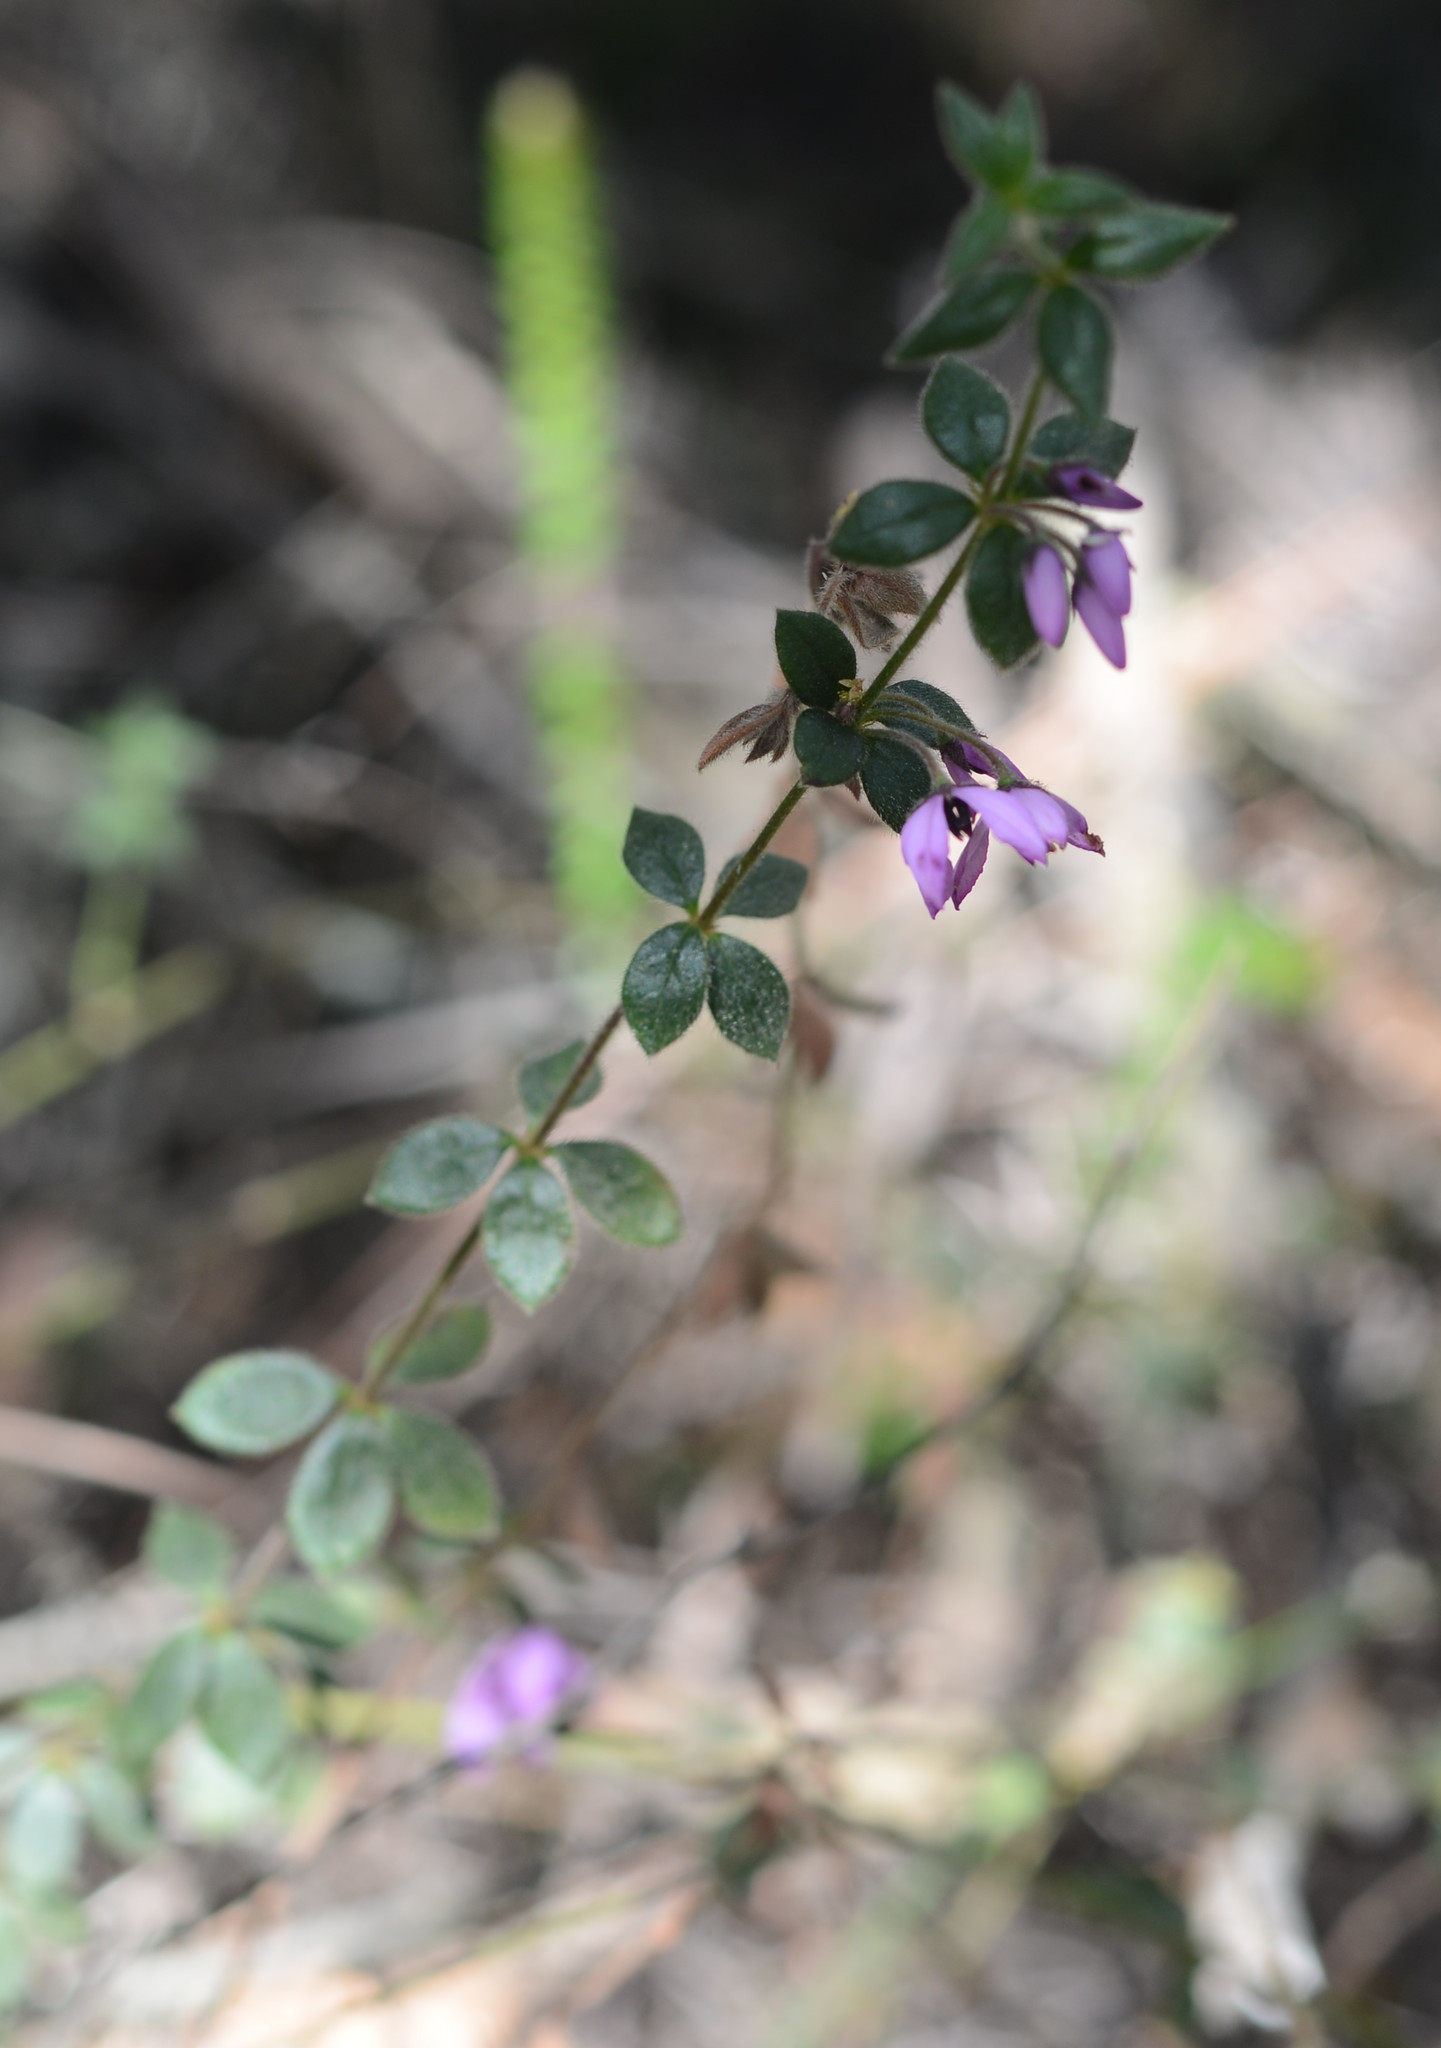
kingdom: Plantae
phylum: Tracheophyta
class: Magnoliopsida
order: Oxalidales
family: Elaeocarpaceae
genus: Tetratheca
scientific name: Tetratheca thymifolia
